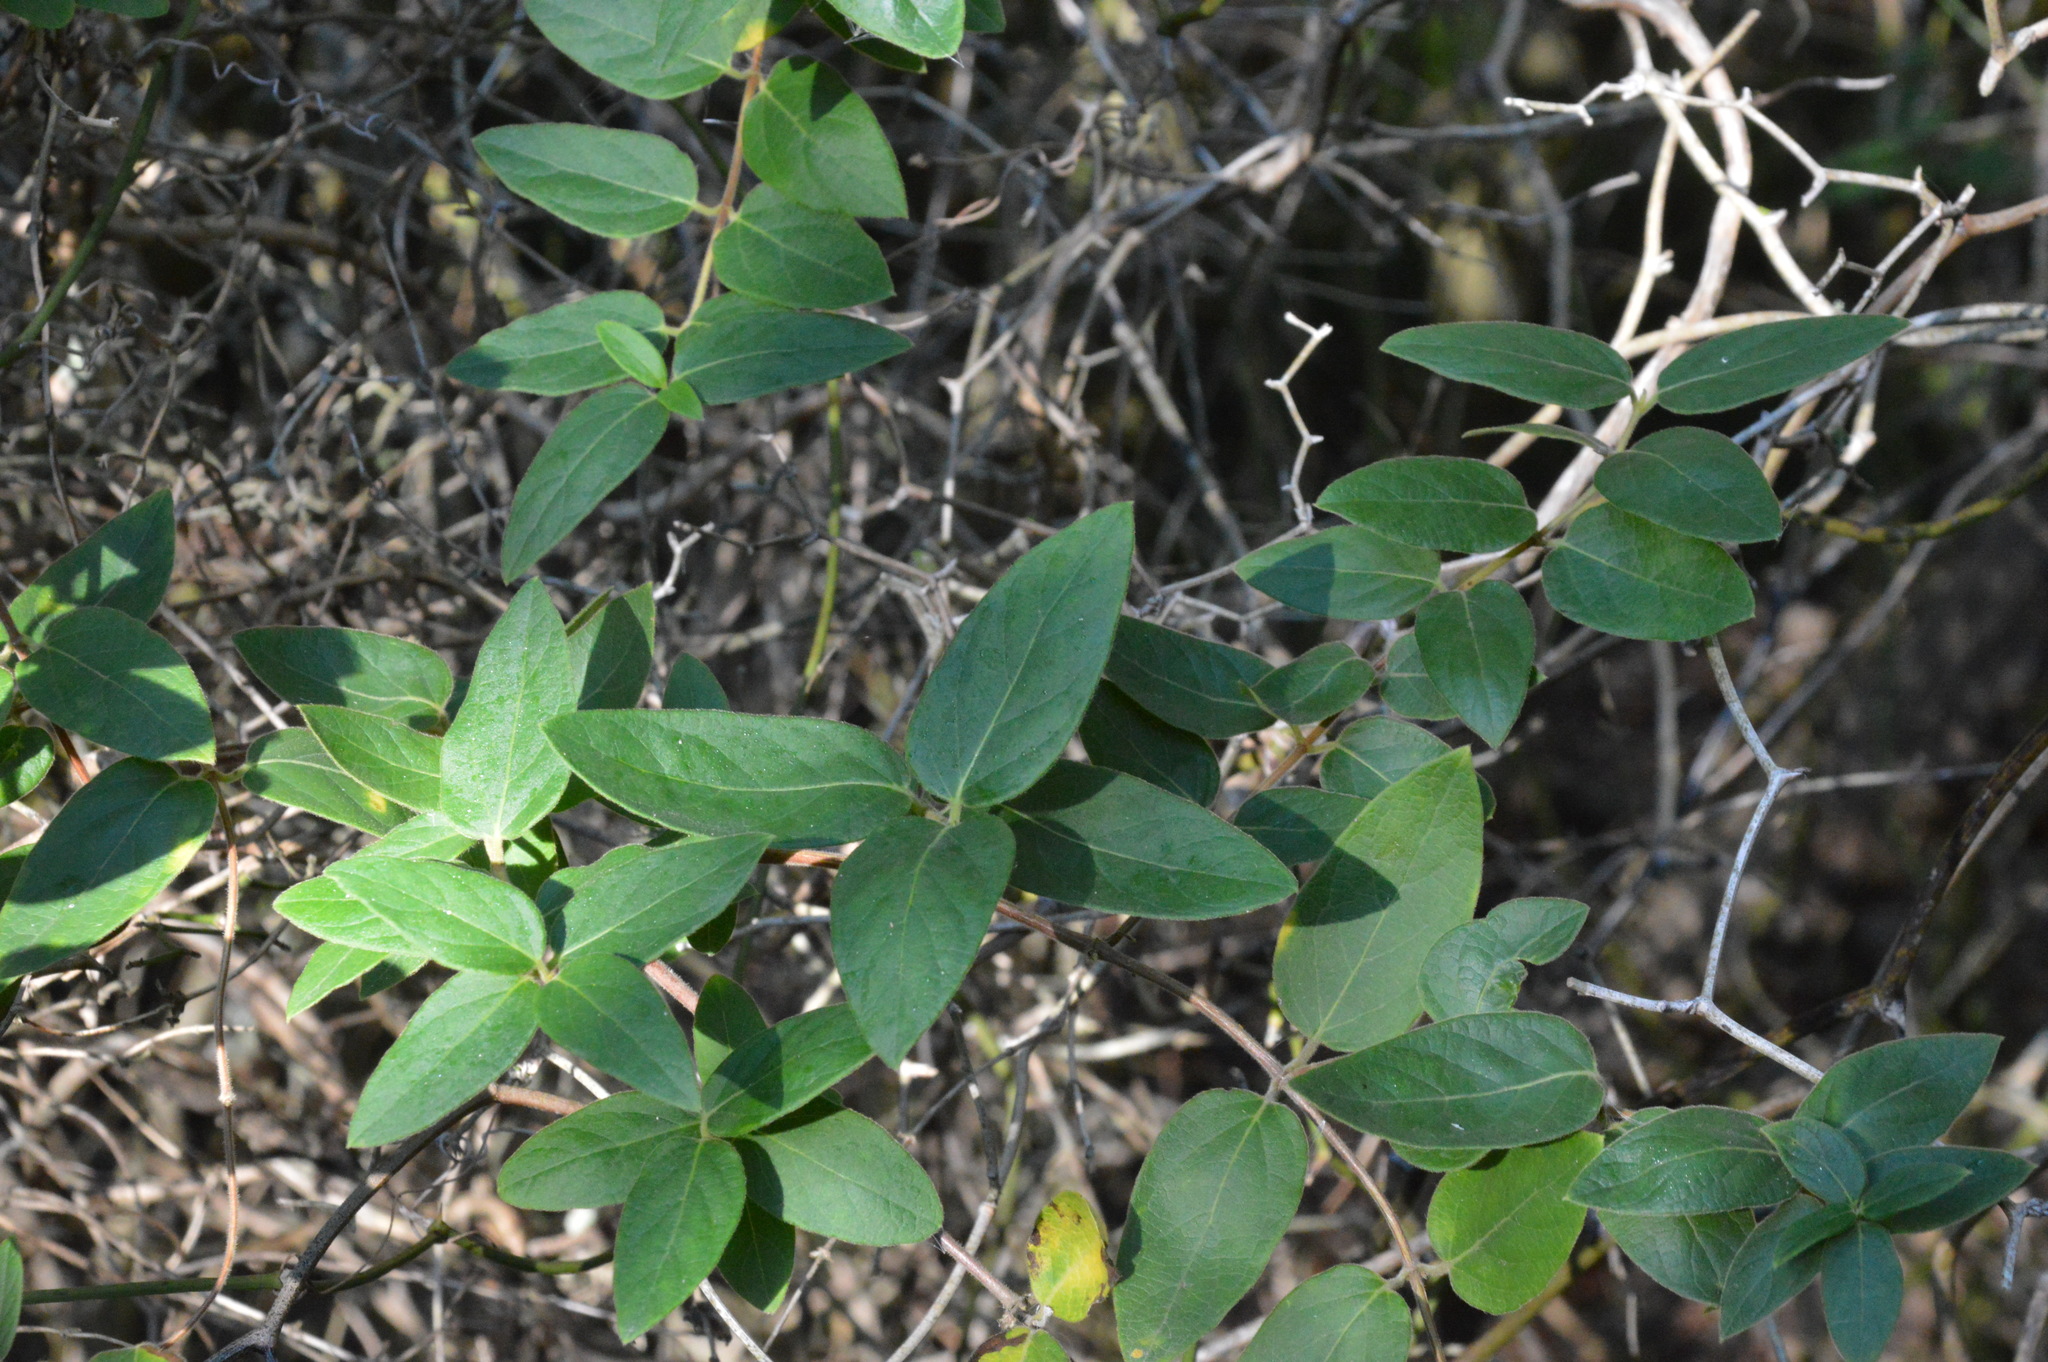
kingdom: Plantae
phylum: Tracheophyta
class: Magnoliopsida
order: Dipsacales
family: Caprifoliaceae
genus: Lonicera
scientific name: Lonicera japonica
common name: Japanese honeysuckle
